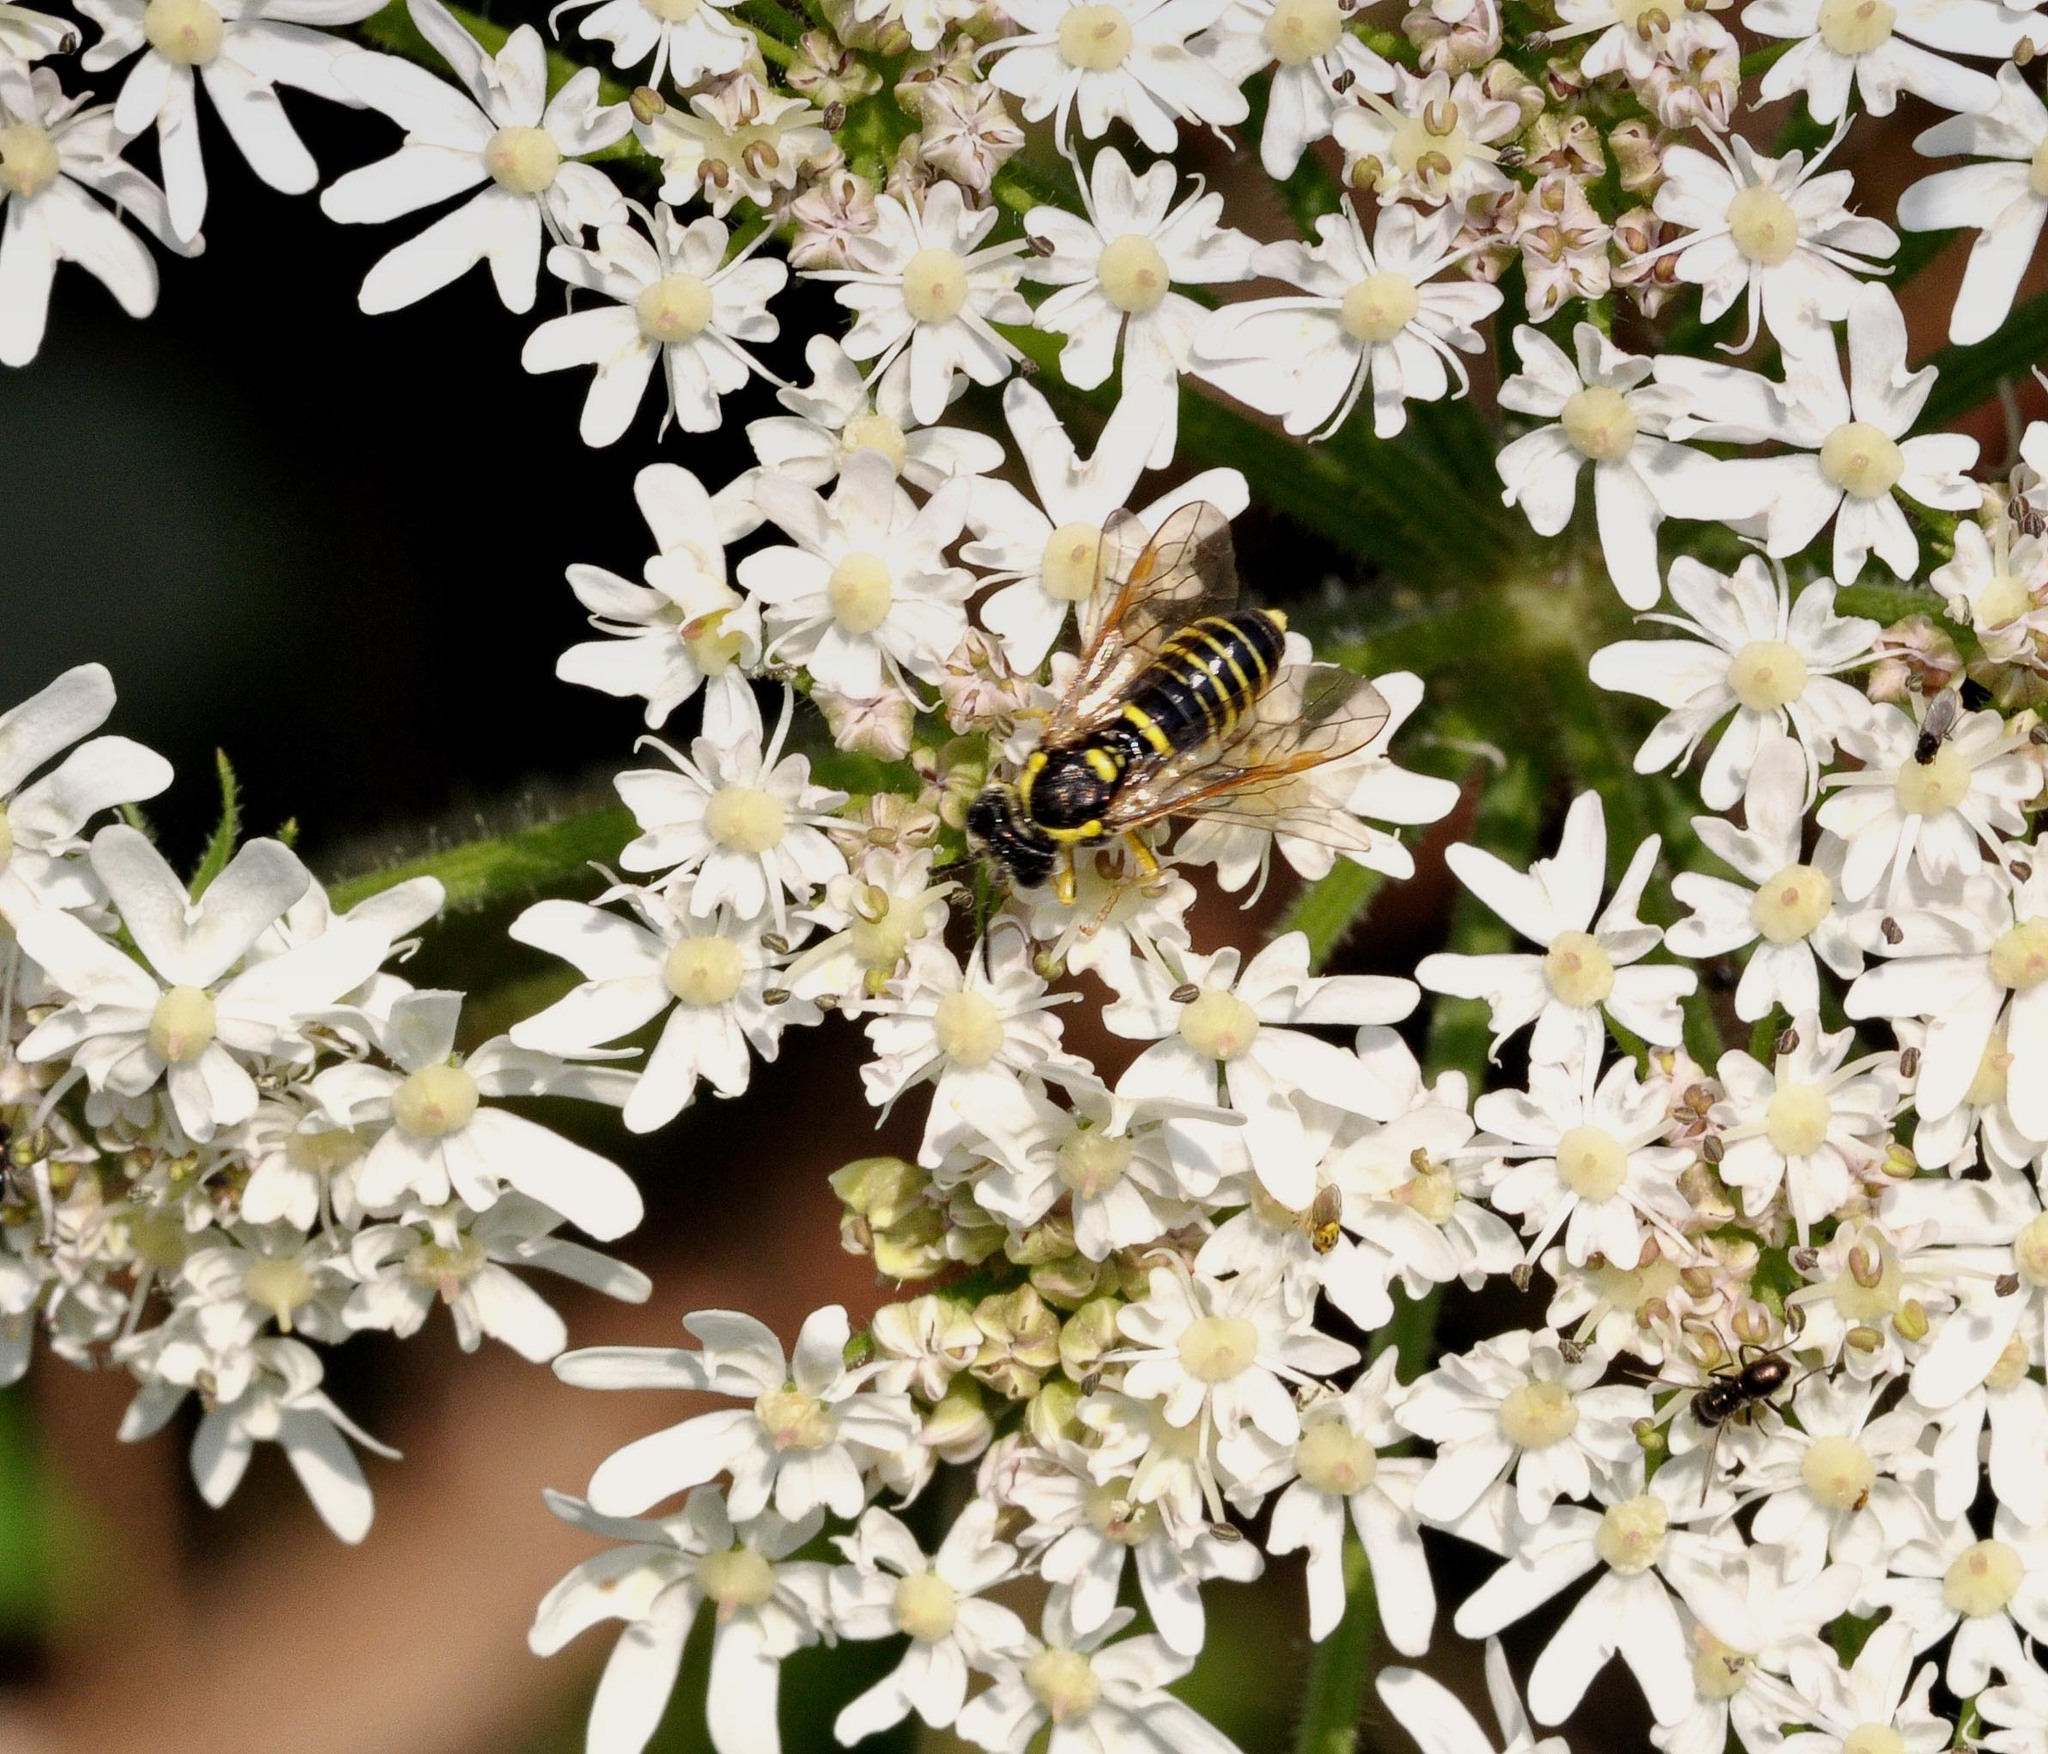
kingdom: Animalia
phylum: Arthropoda
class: Insecta
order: Hymenoptera
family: Tenthredinidae
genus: Tenthredo
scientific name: Tenthredo notha
